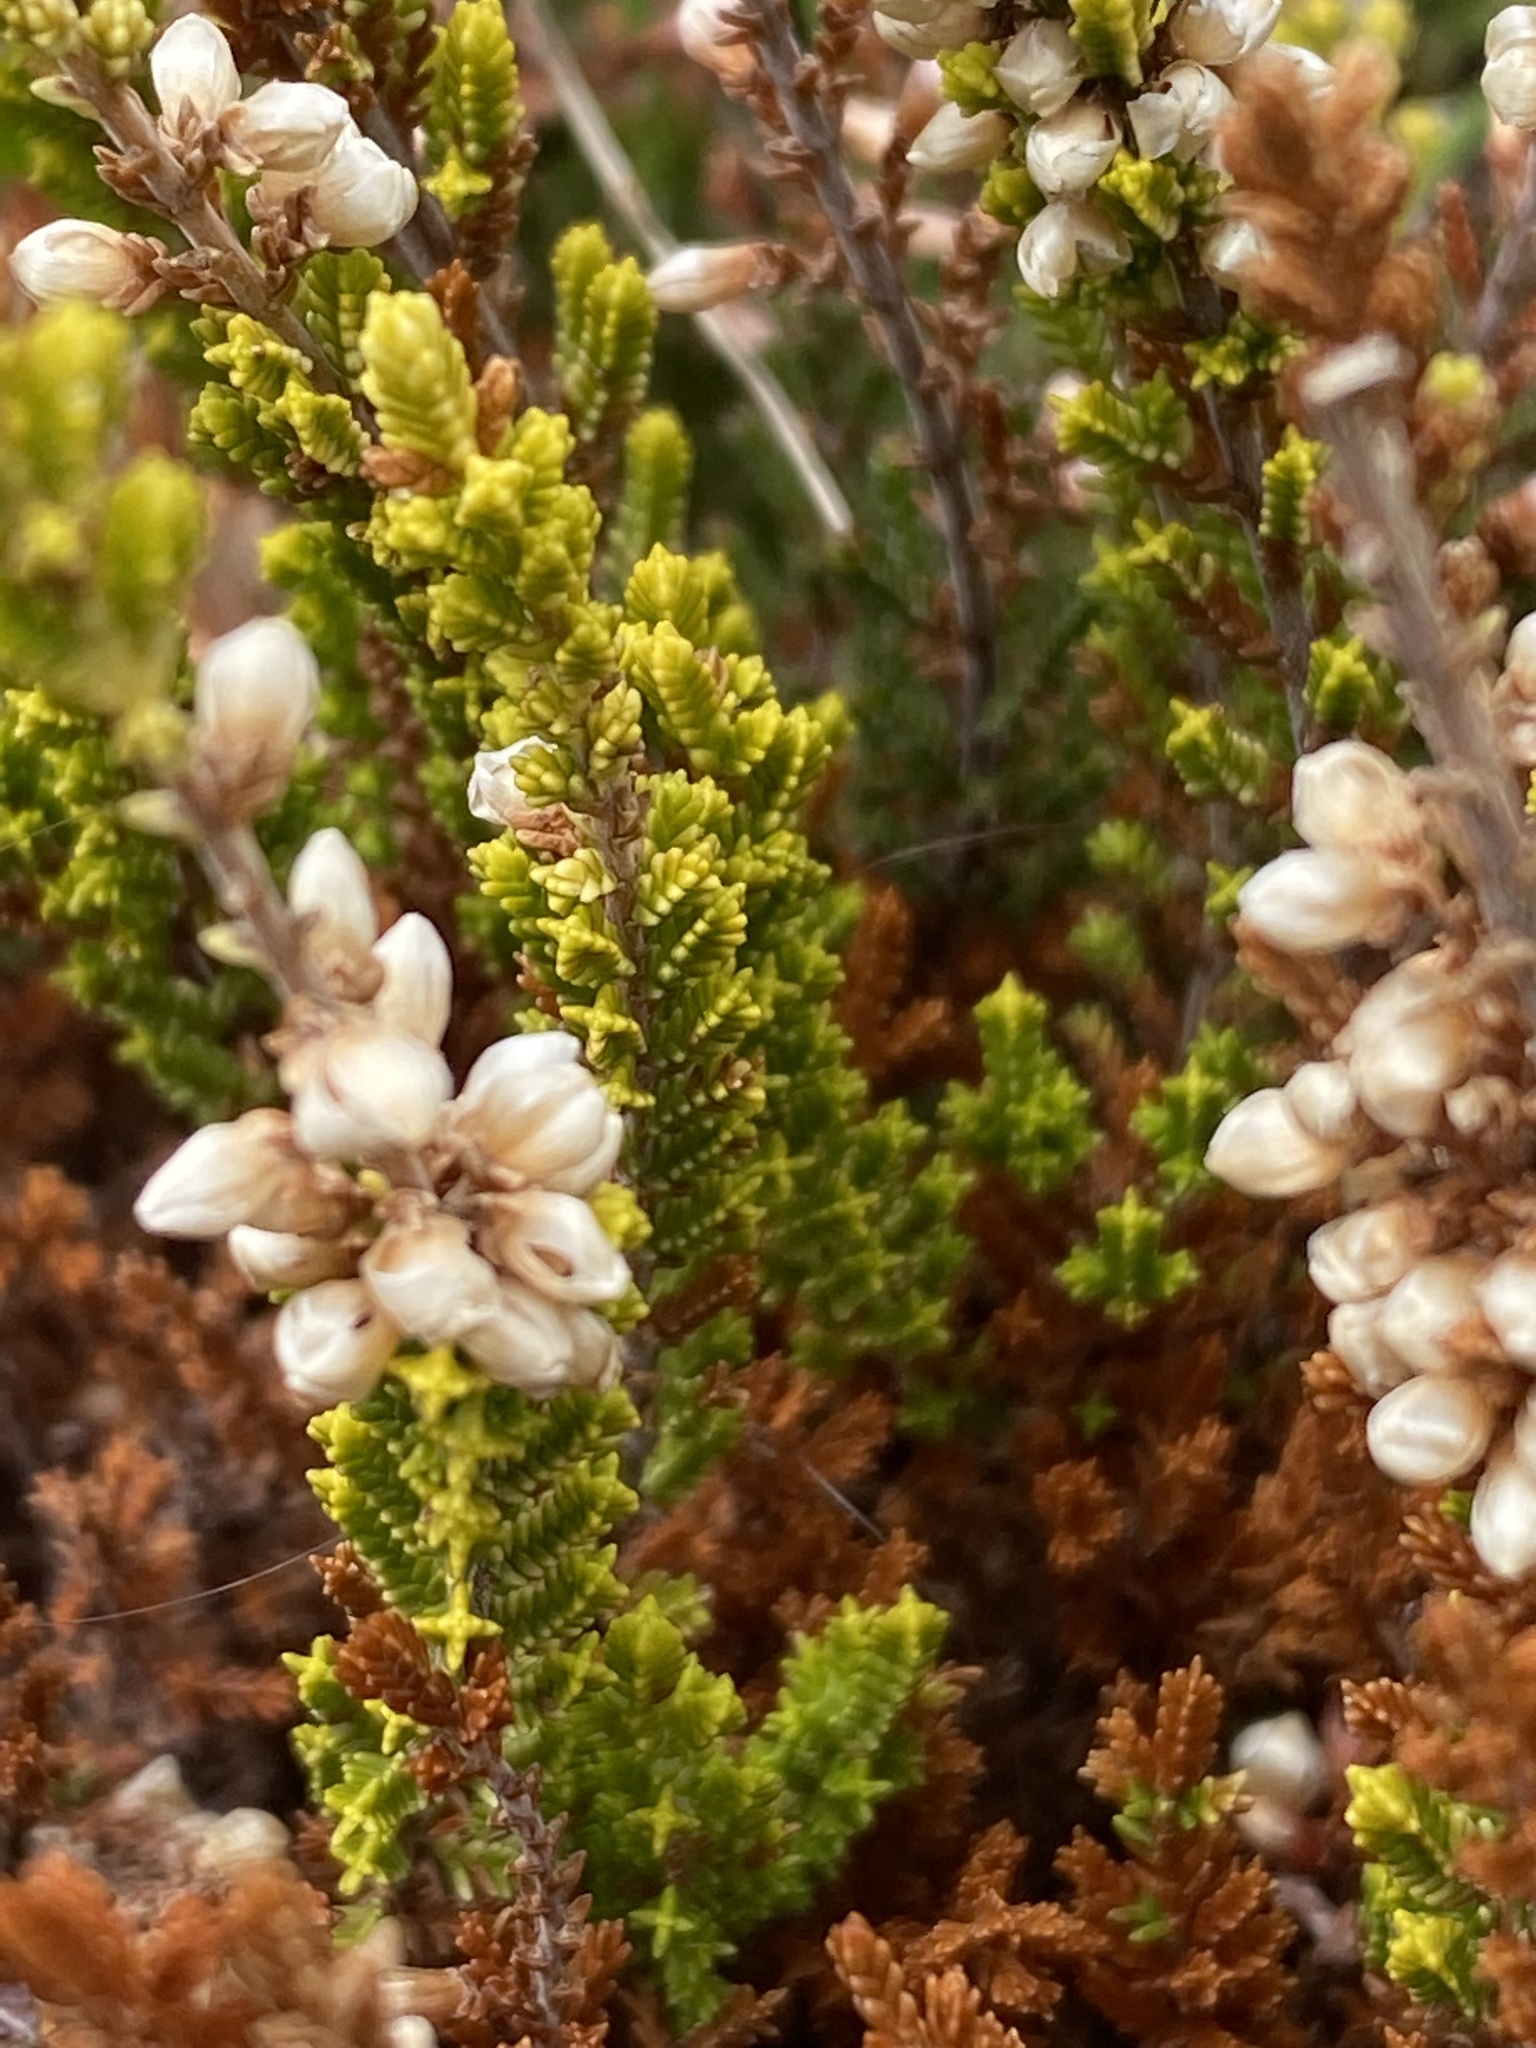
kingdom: Plantae
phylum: Tracheophyta
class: Magnoliopsida
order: Ericales
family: Ericaceae
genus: Calluna
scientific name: Calluna vulgaris
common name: Heather
